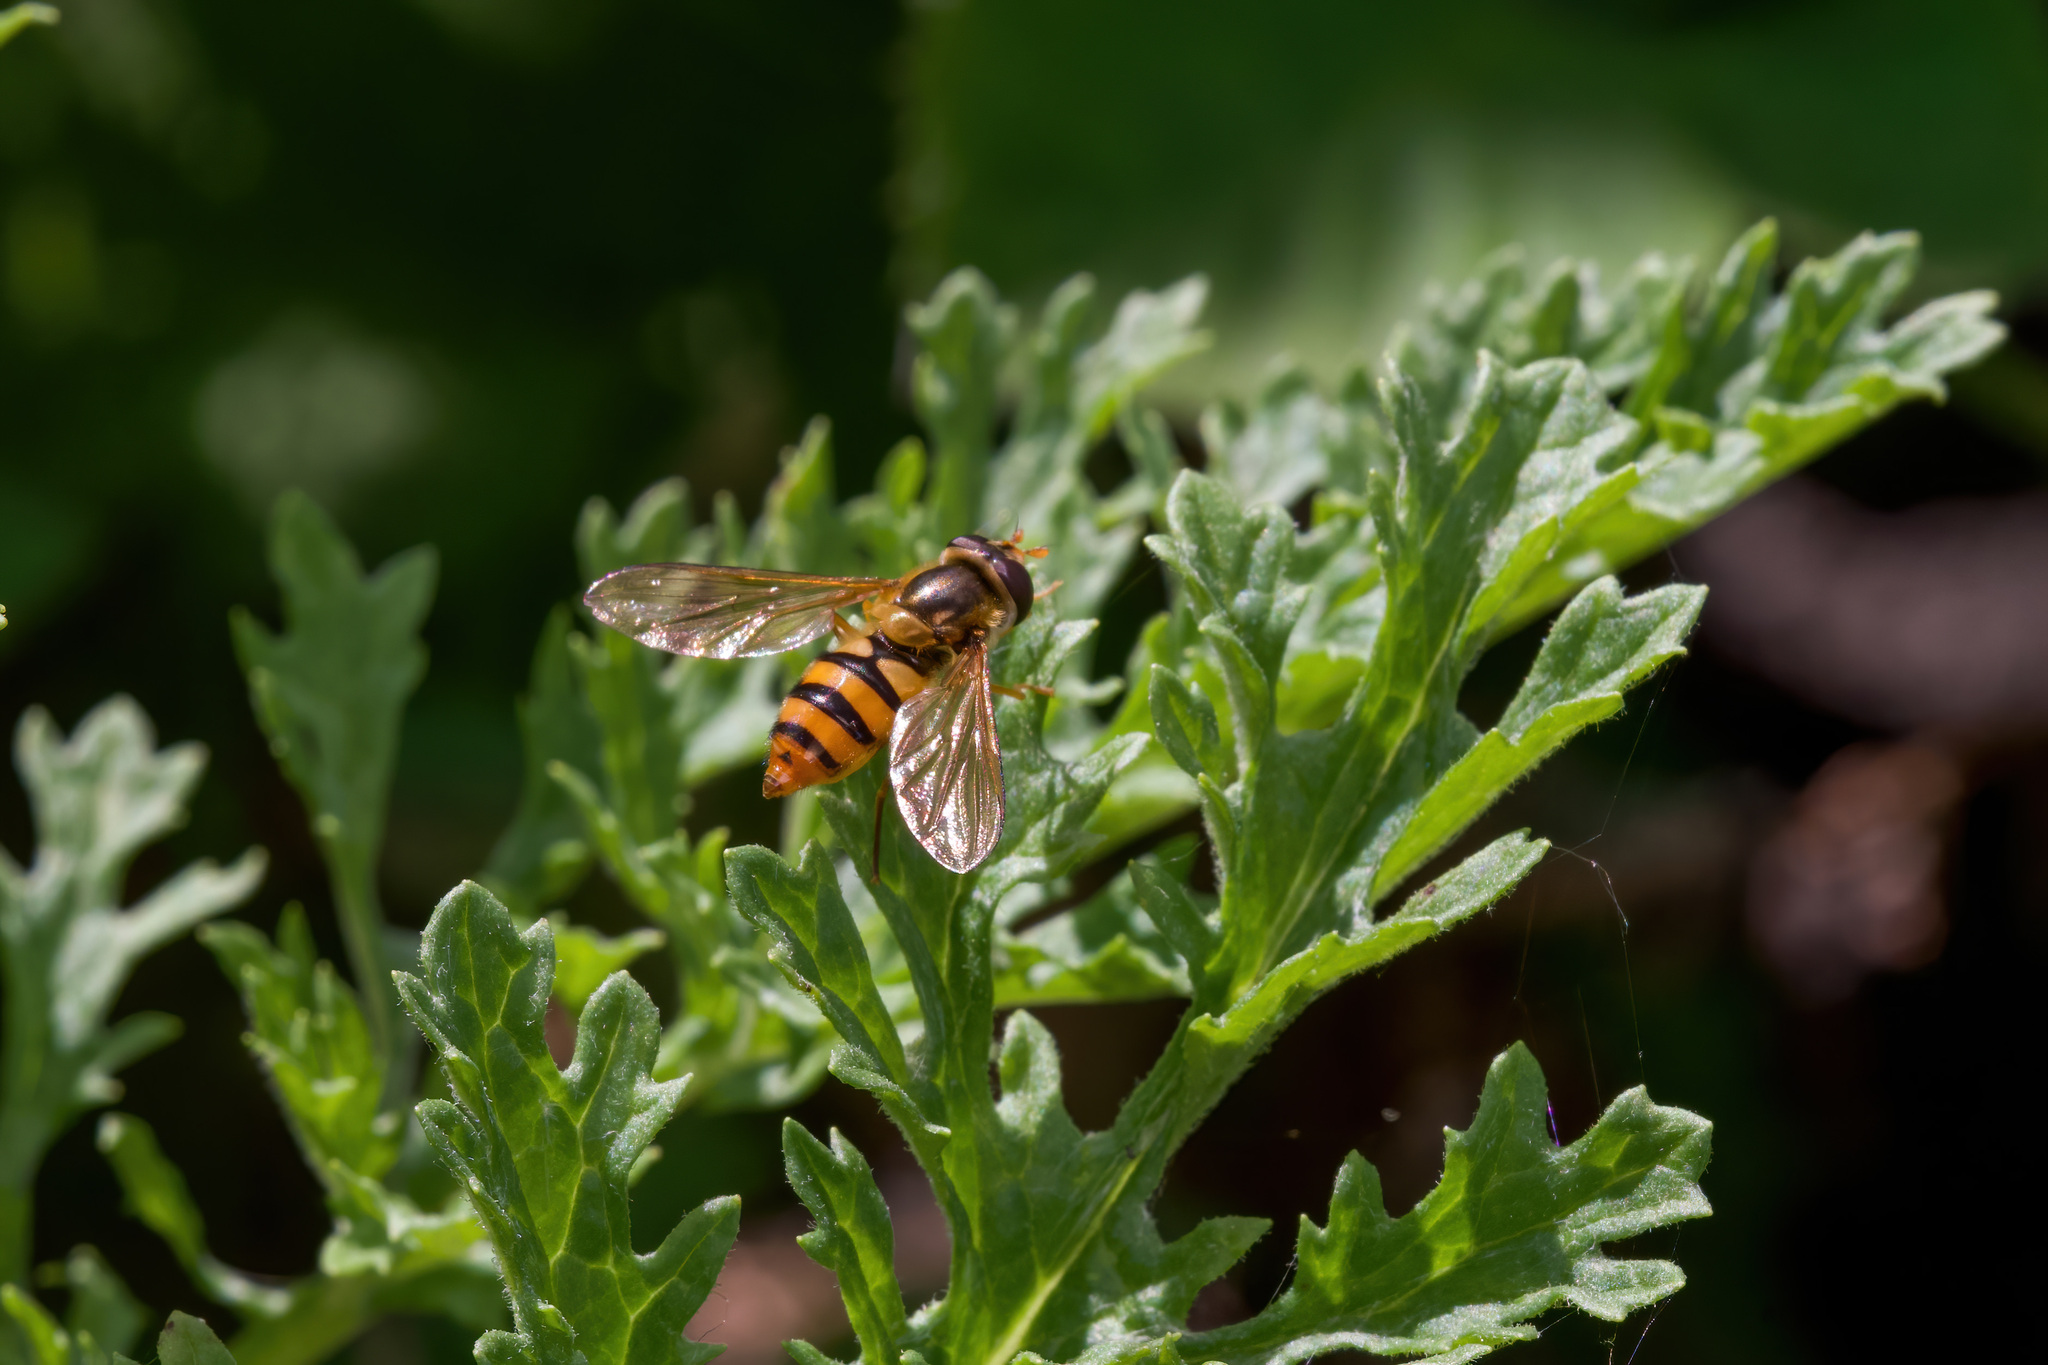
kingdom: Animalia
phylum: Arthropoda
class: Insecta
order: Diptera
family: Syrphidae
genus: Epistrophe
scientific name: Epistrophe melanostoma
